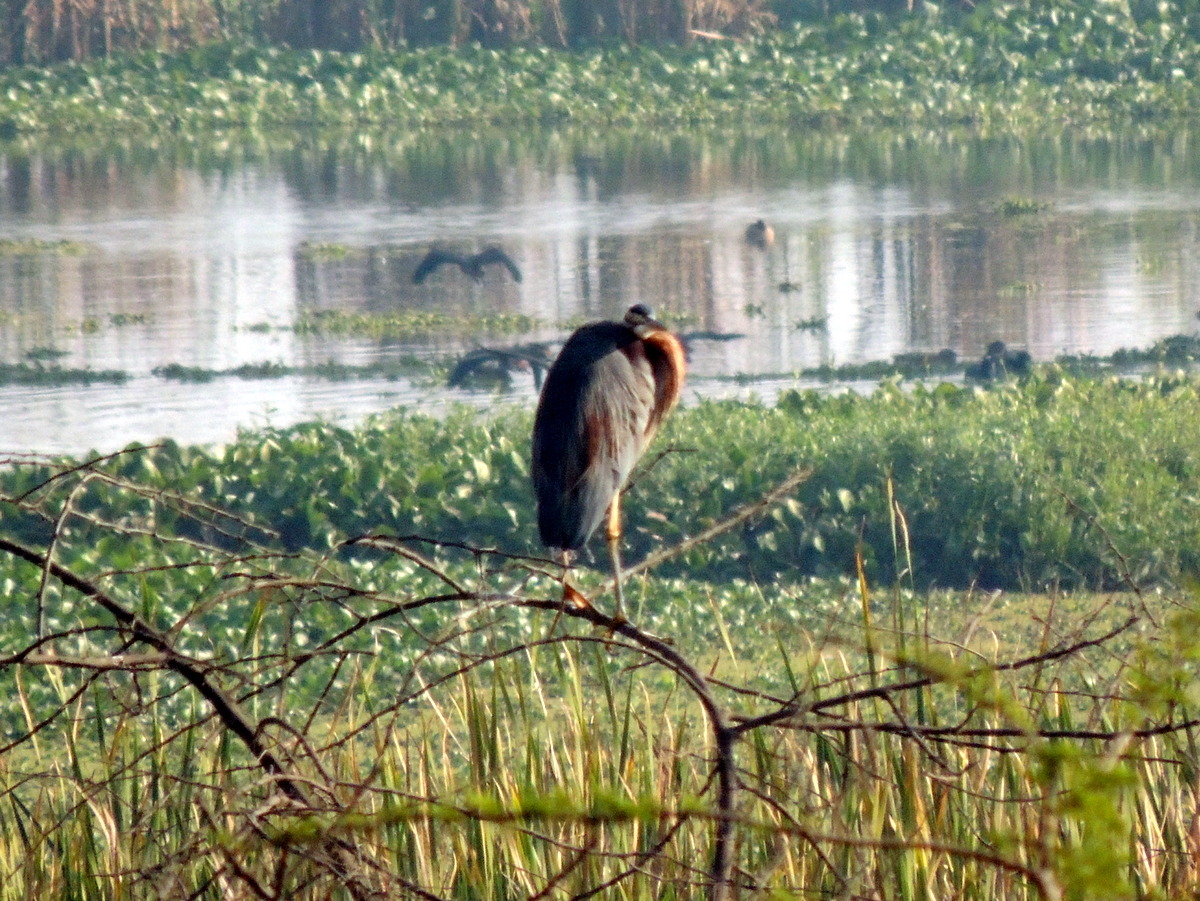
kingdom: Animalia
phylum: Chordata
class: Aves
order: Pelecaniformes
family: Ardeidae
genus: Ardea
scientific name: Ardea purpurea
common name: Purple heron
